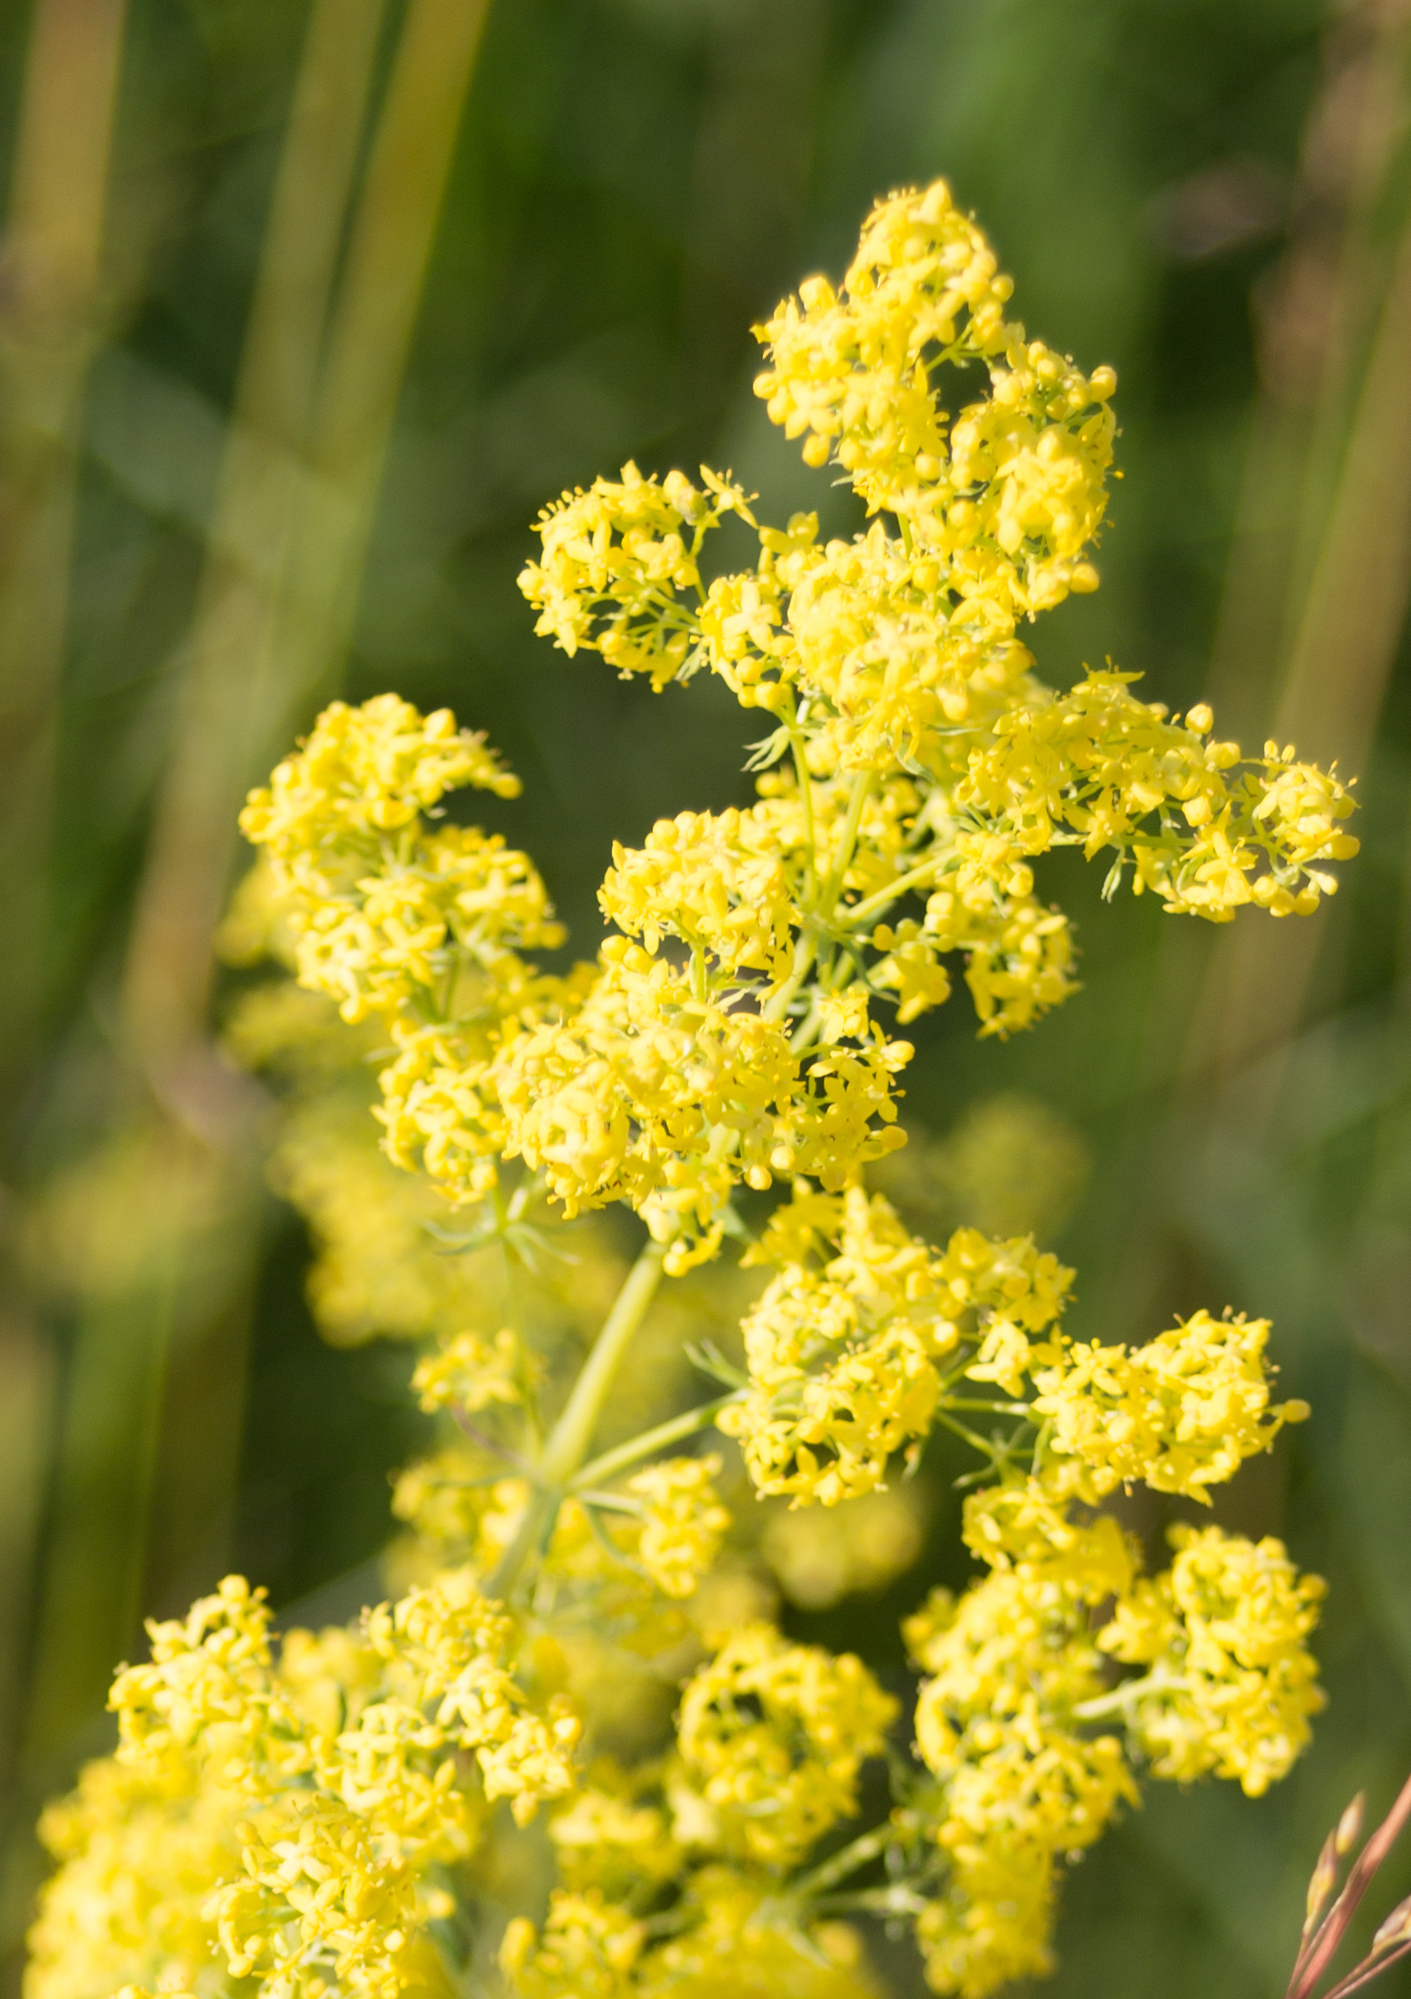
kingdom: Plantae
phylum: Tracheophyta
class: Magnoliopsida
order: Gentianales
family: Rubiaceae
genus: Galium
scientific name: Galium verum
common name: Lady's bedstraw
